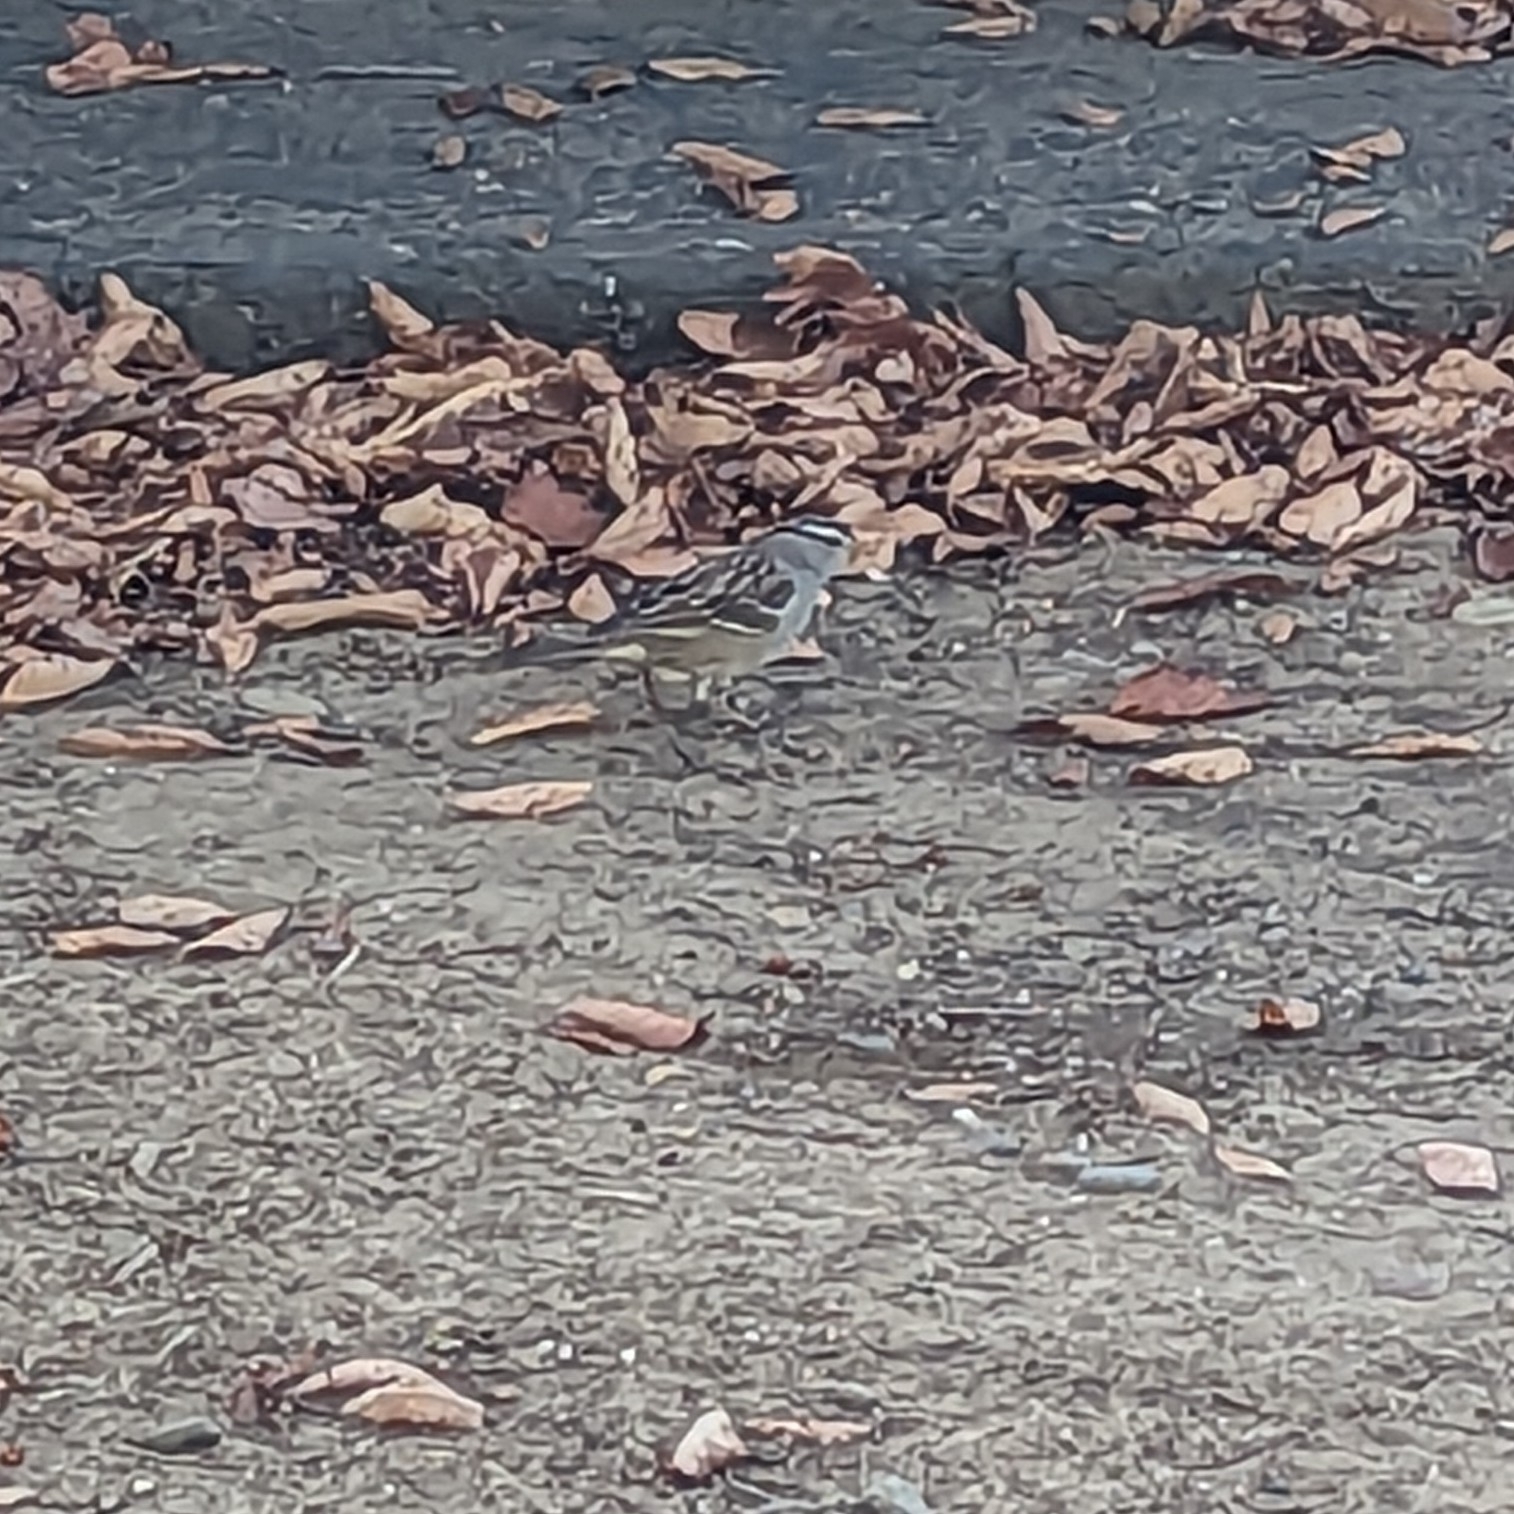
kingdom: Animalia
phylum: Chordata
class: Aves
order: Passeriformes
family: Passerellidae
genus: Zonotrichia
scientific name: Zonotrichia leucophrys
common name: White-crowned sparrow
